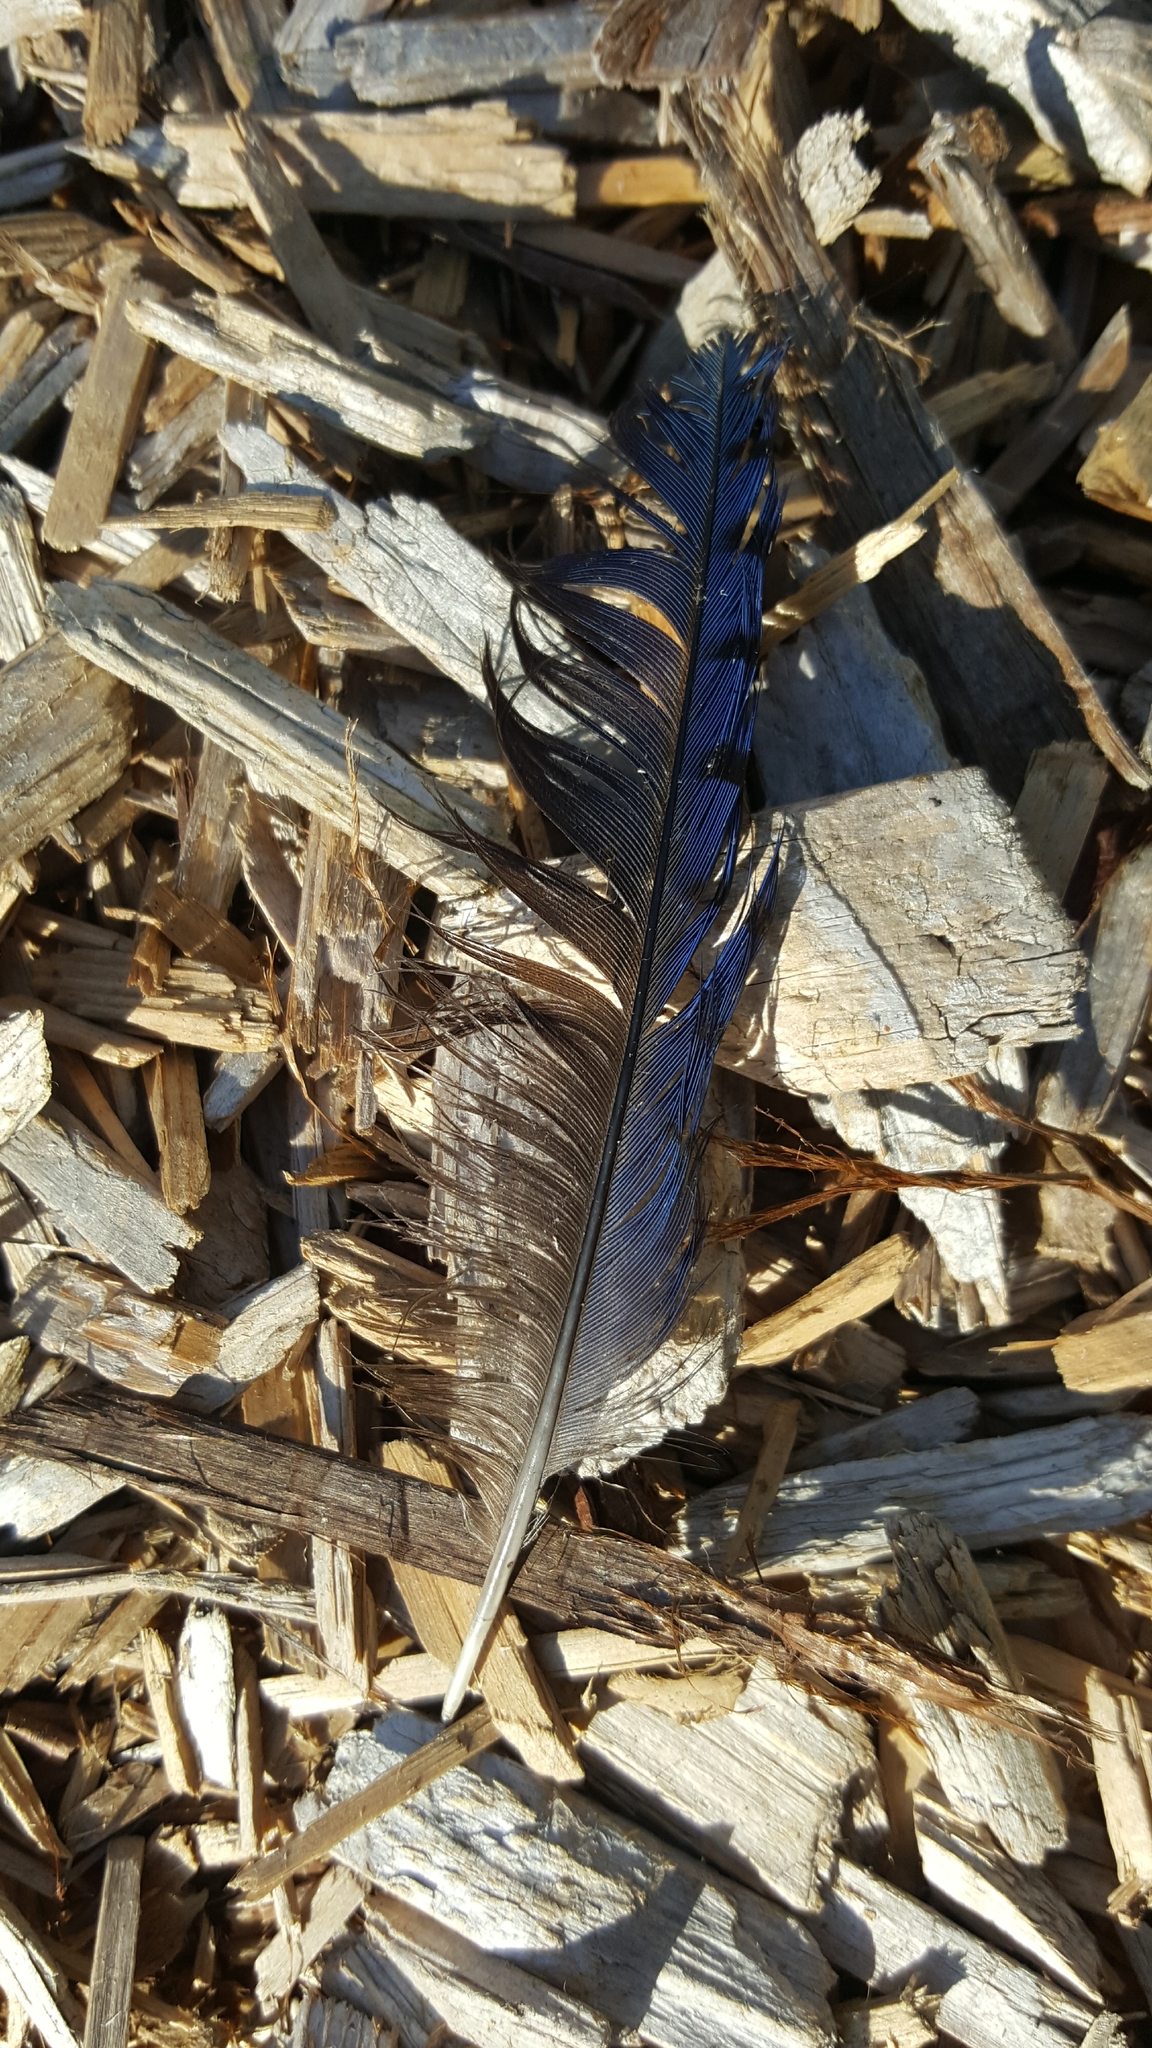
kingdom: Animalia
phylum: Chordata
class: Aves
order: Passeriformes
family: Corvidae
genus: Cyanocitta
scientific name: Cyanocitta stelleri
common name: Steller's jay
